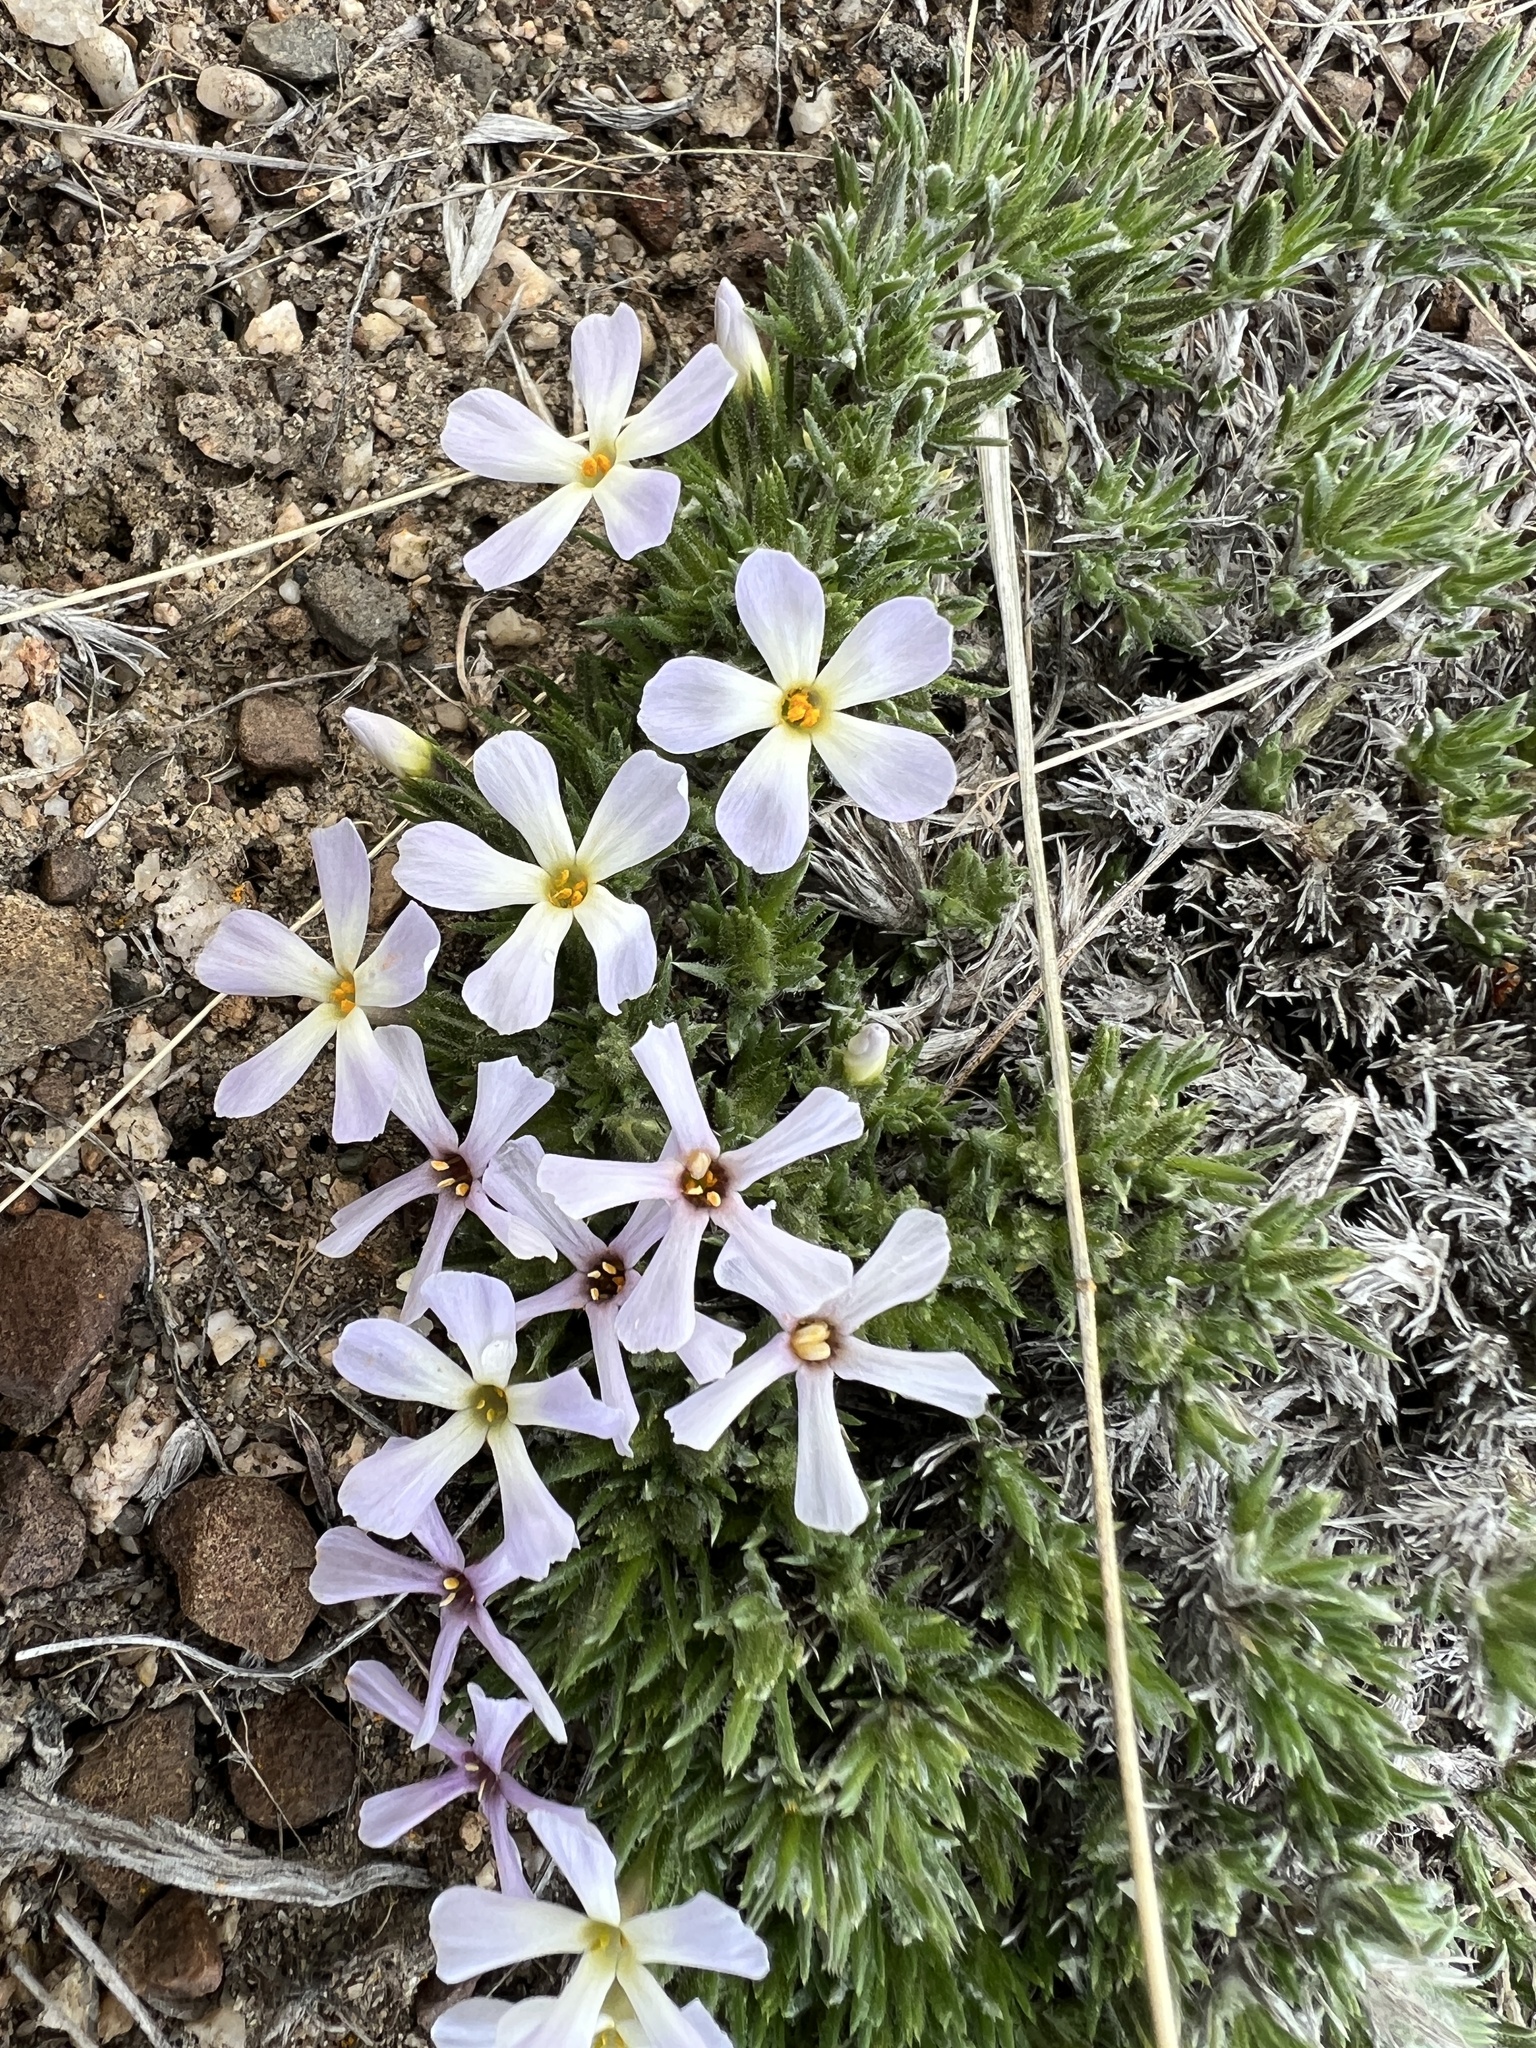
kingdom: Plantae
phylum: Tracheophyta
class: Magnoliopsida
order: Ericales
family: Polemoniaceae
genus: Phlox
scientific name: Phlox douglasii
